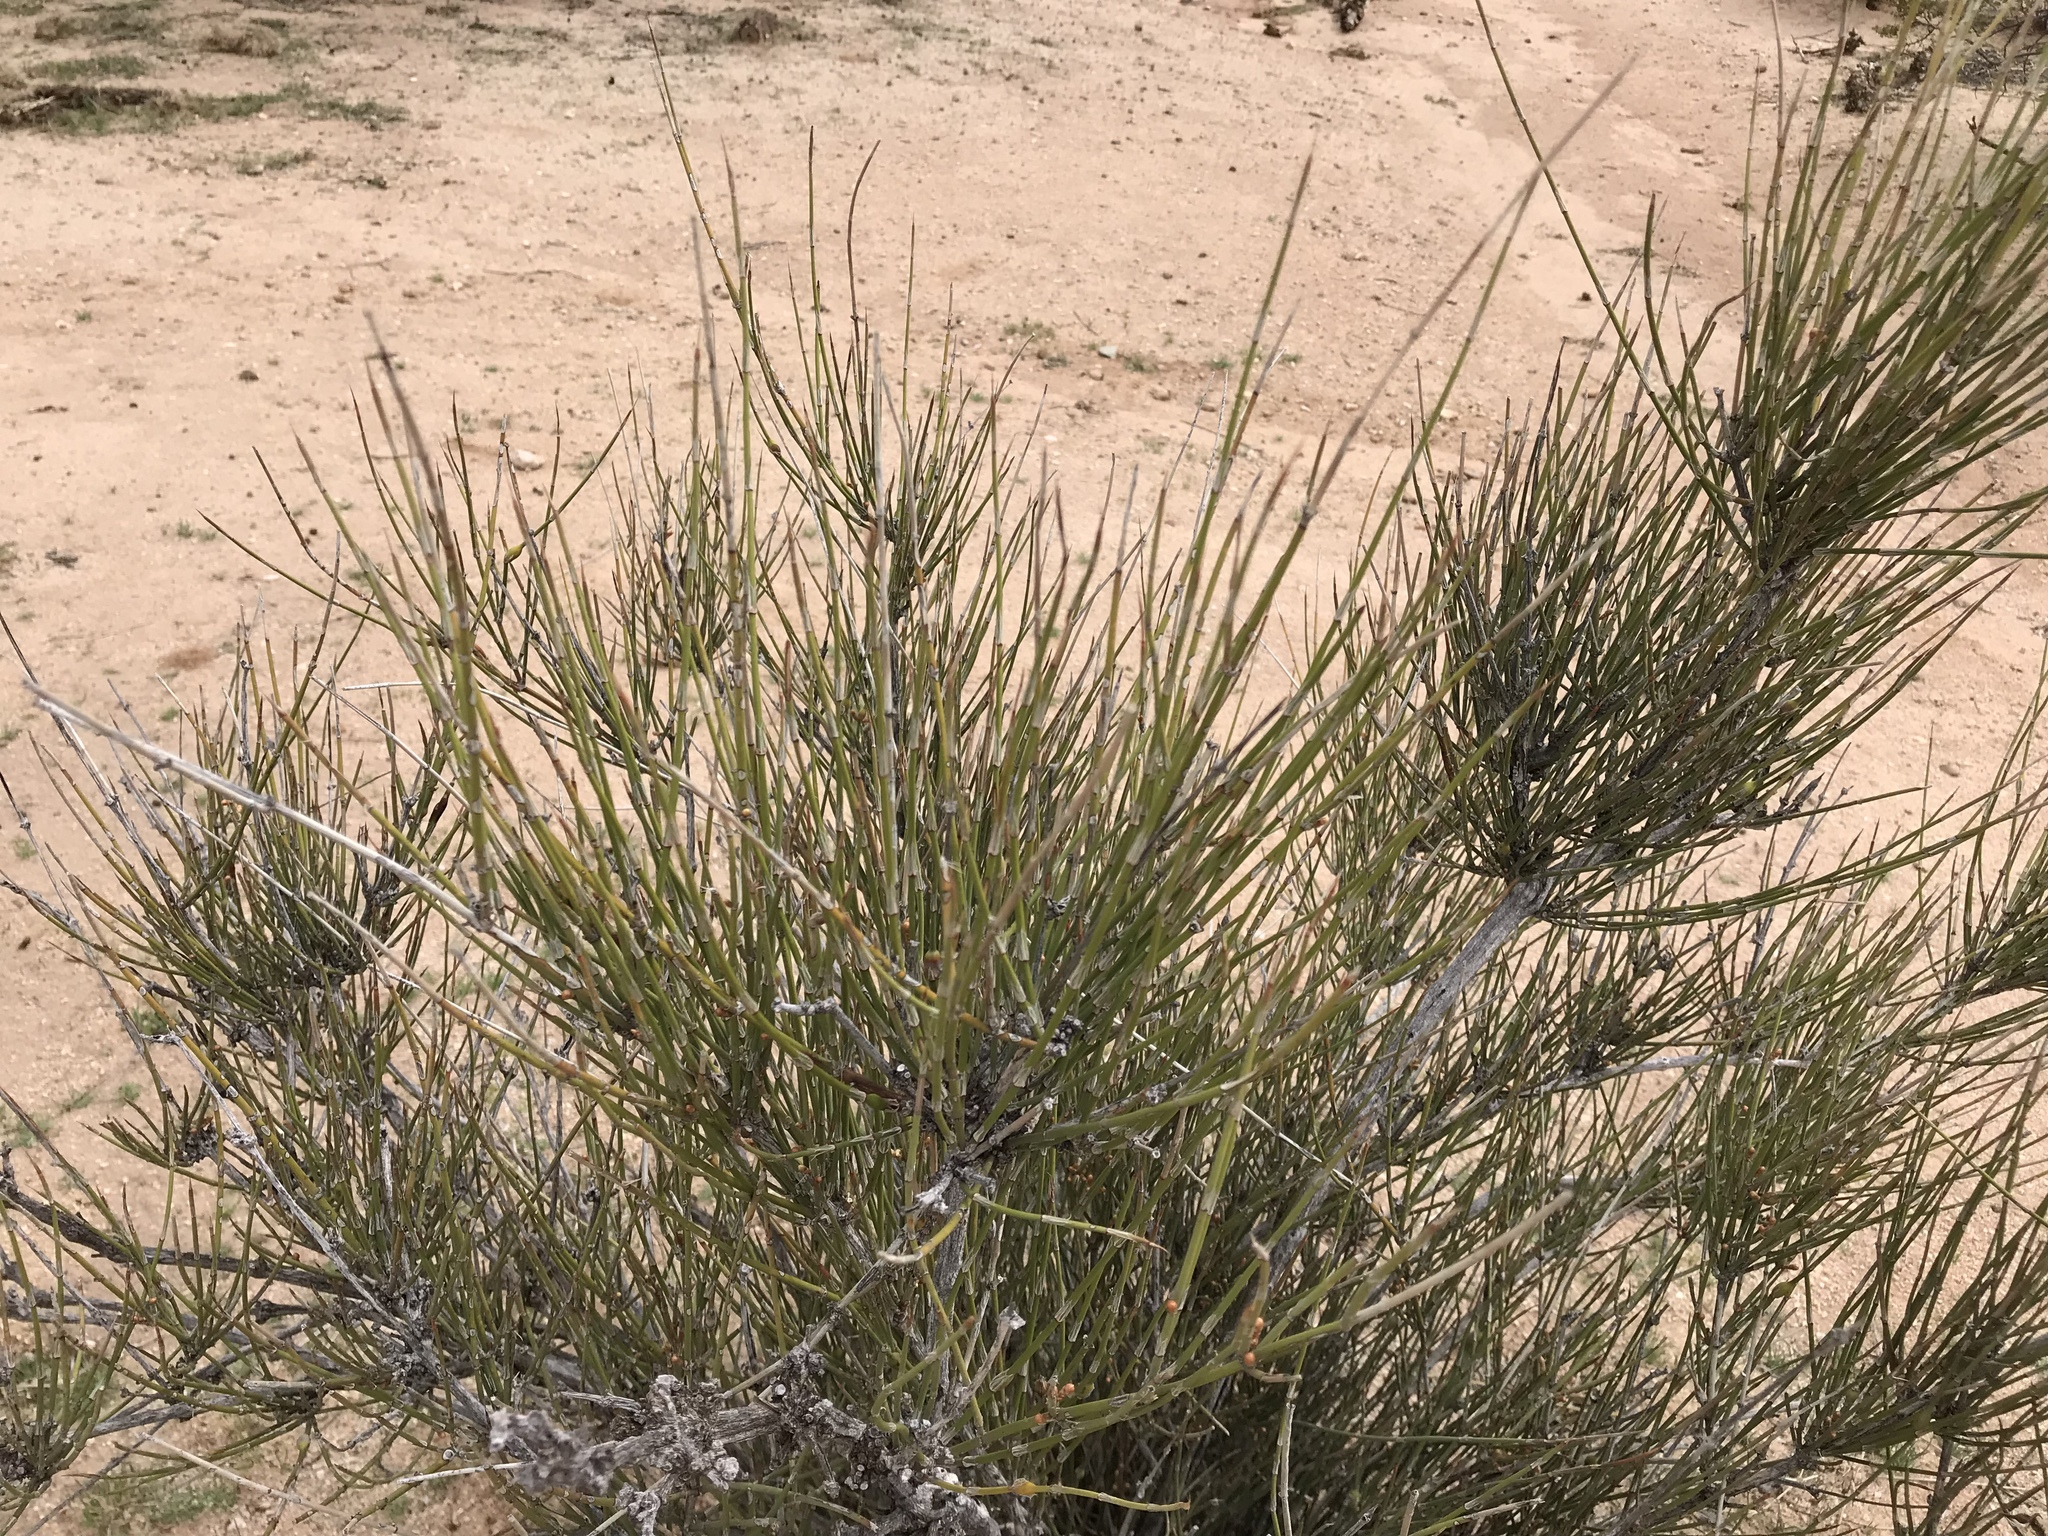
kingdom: Plantae
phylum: Tracheophyta
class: Gnetopsida
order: Ephedrales
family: Ephedraceae
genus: Ephedra
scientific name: Ephedra trifurca
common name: Mexican-tea
